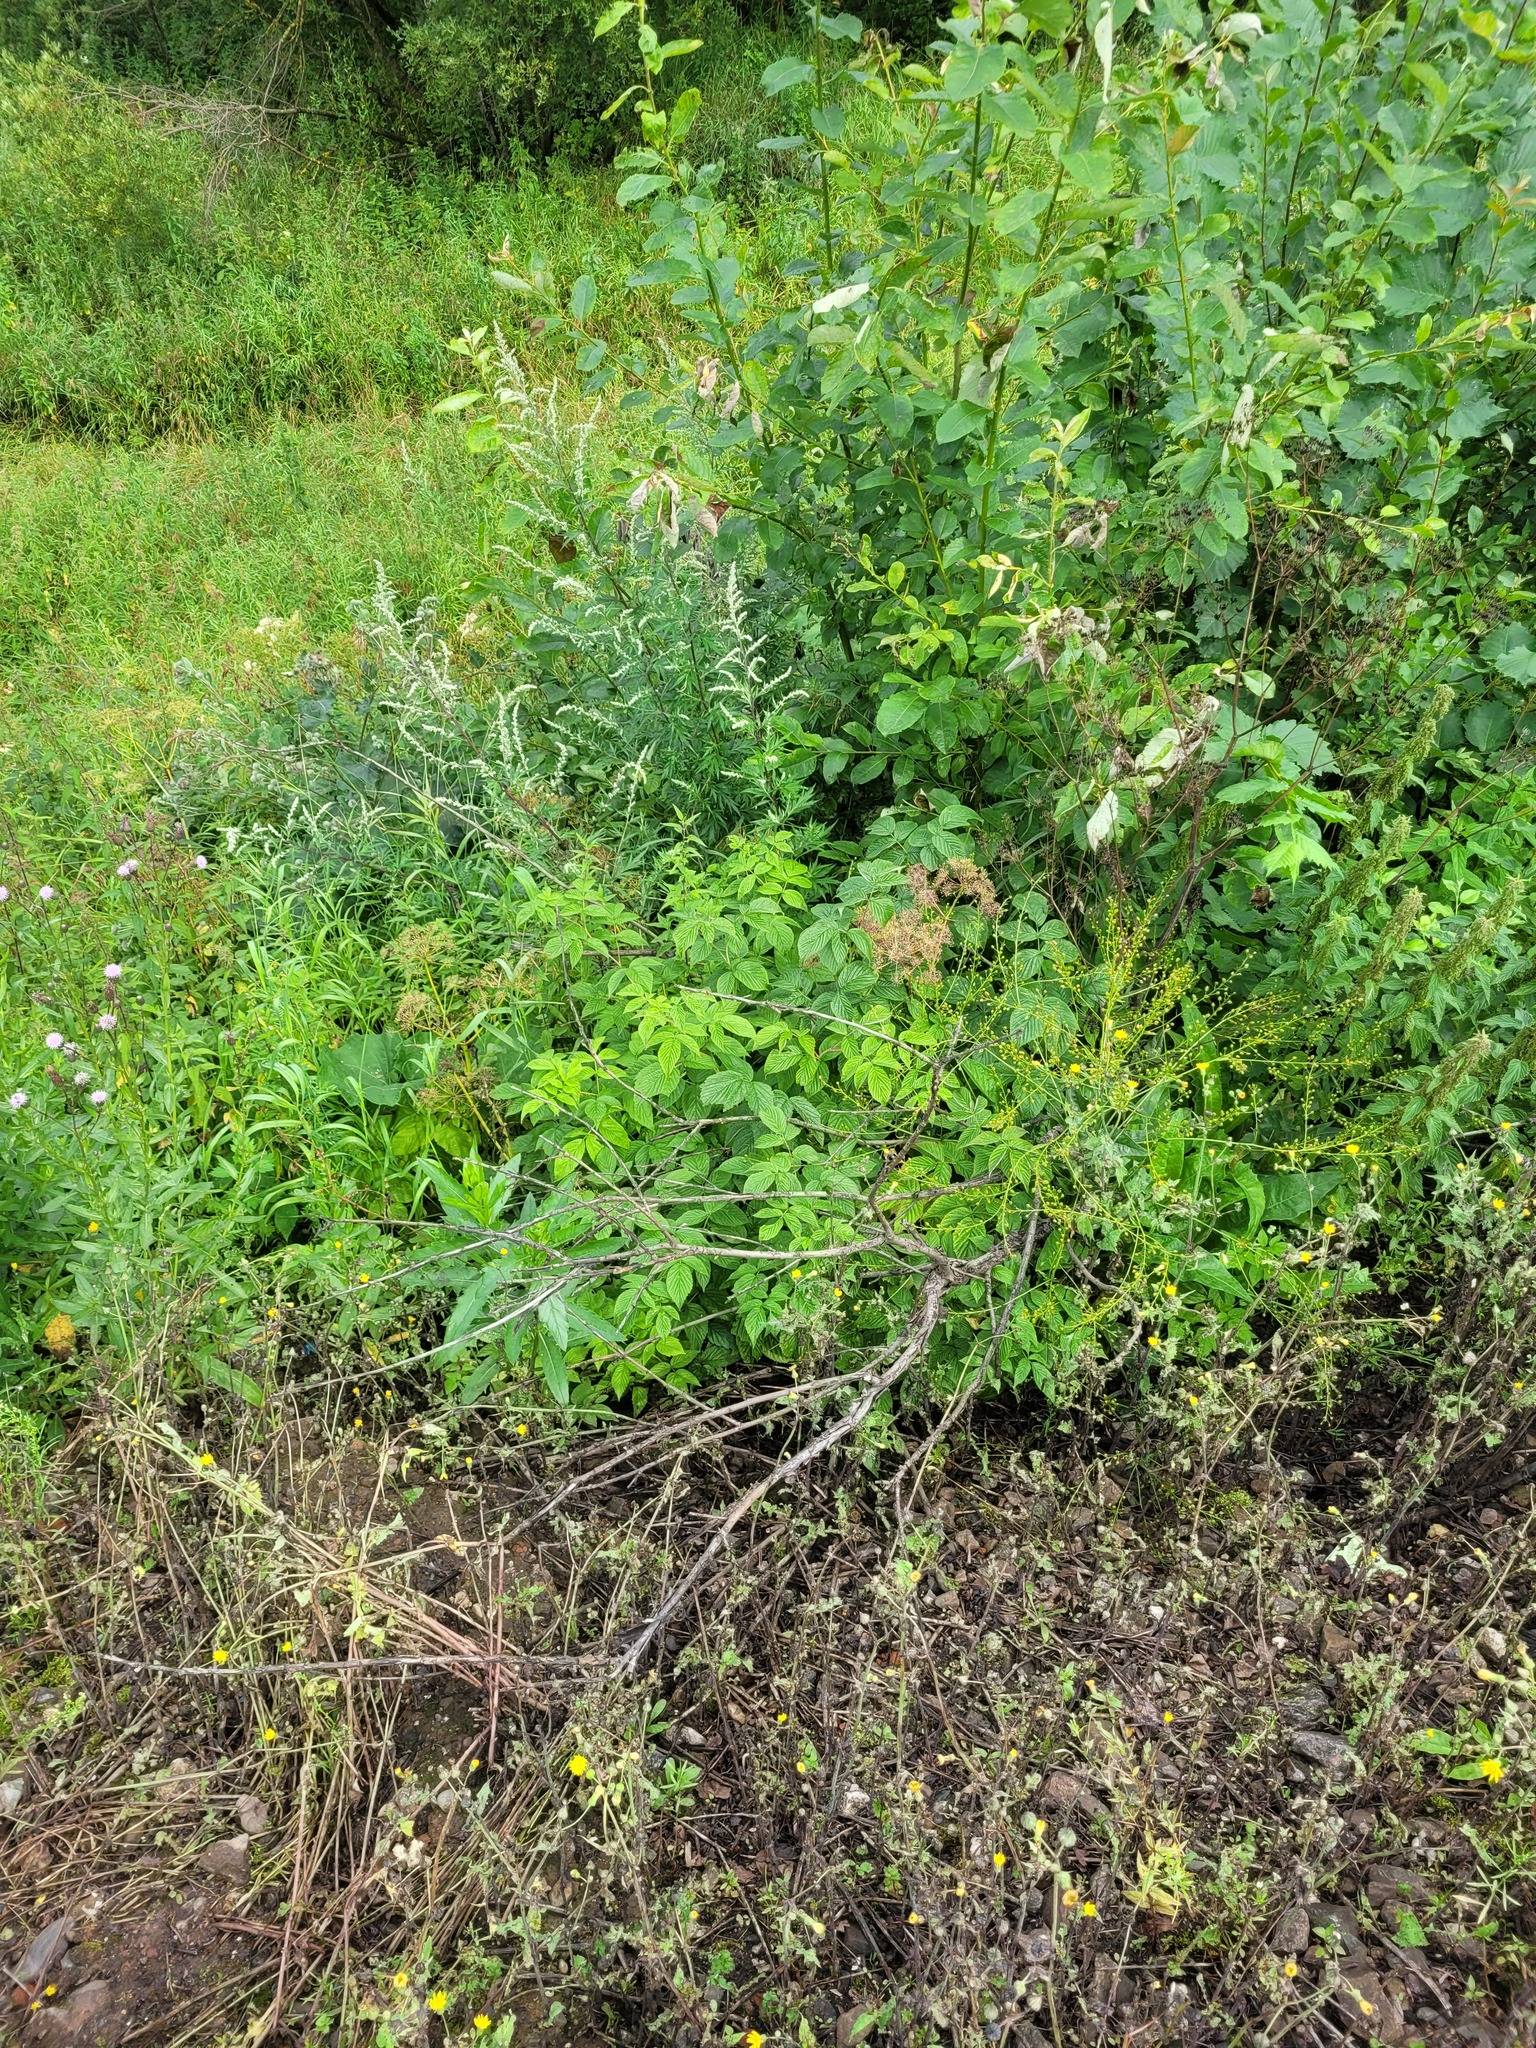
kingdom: Plantae
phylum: Tracheophyta
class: Magnoliopsida
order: Brassicales
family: Brassicaceae
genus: Bunias
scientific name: Bunias orientalis
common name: Warty-cabbage
